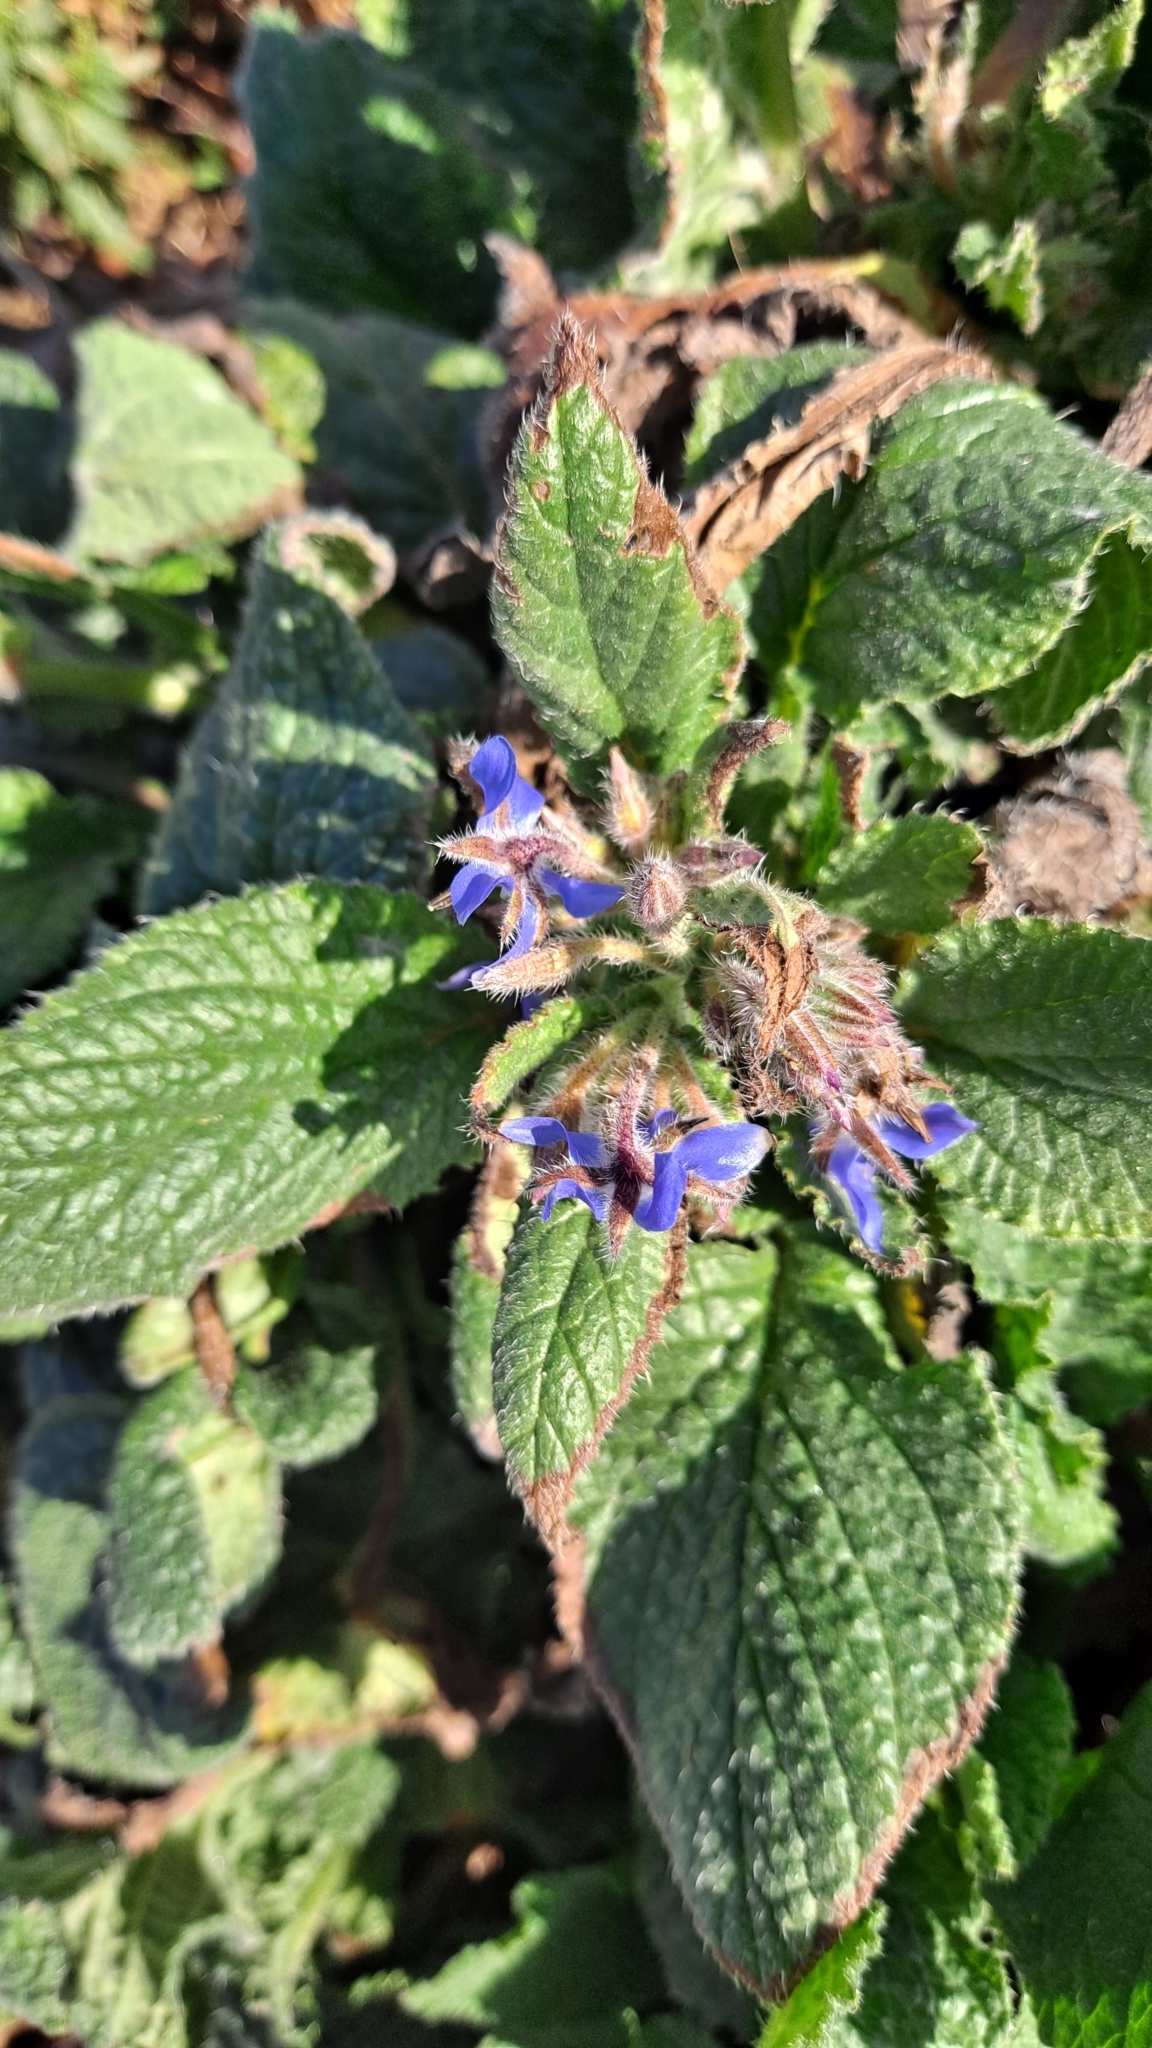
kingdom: Plantae
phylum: Tracheophyta
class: Magnoliopsida
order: Boraginales
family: Boraginaceae
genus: Borago
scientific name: Borago officinalis
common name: Borage
